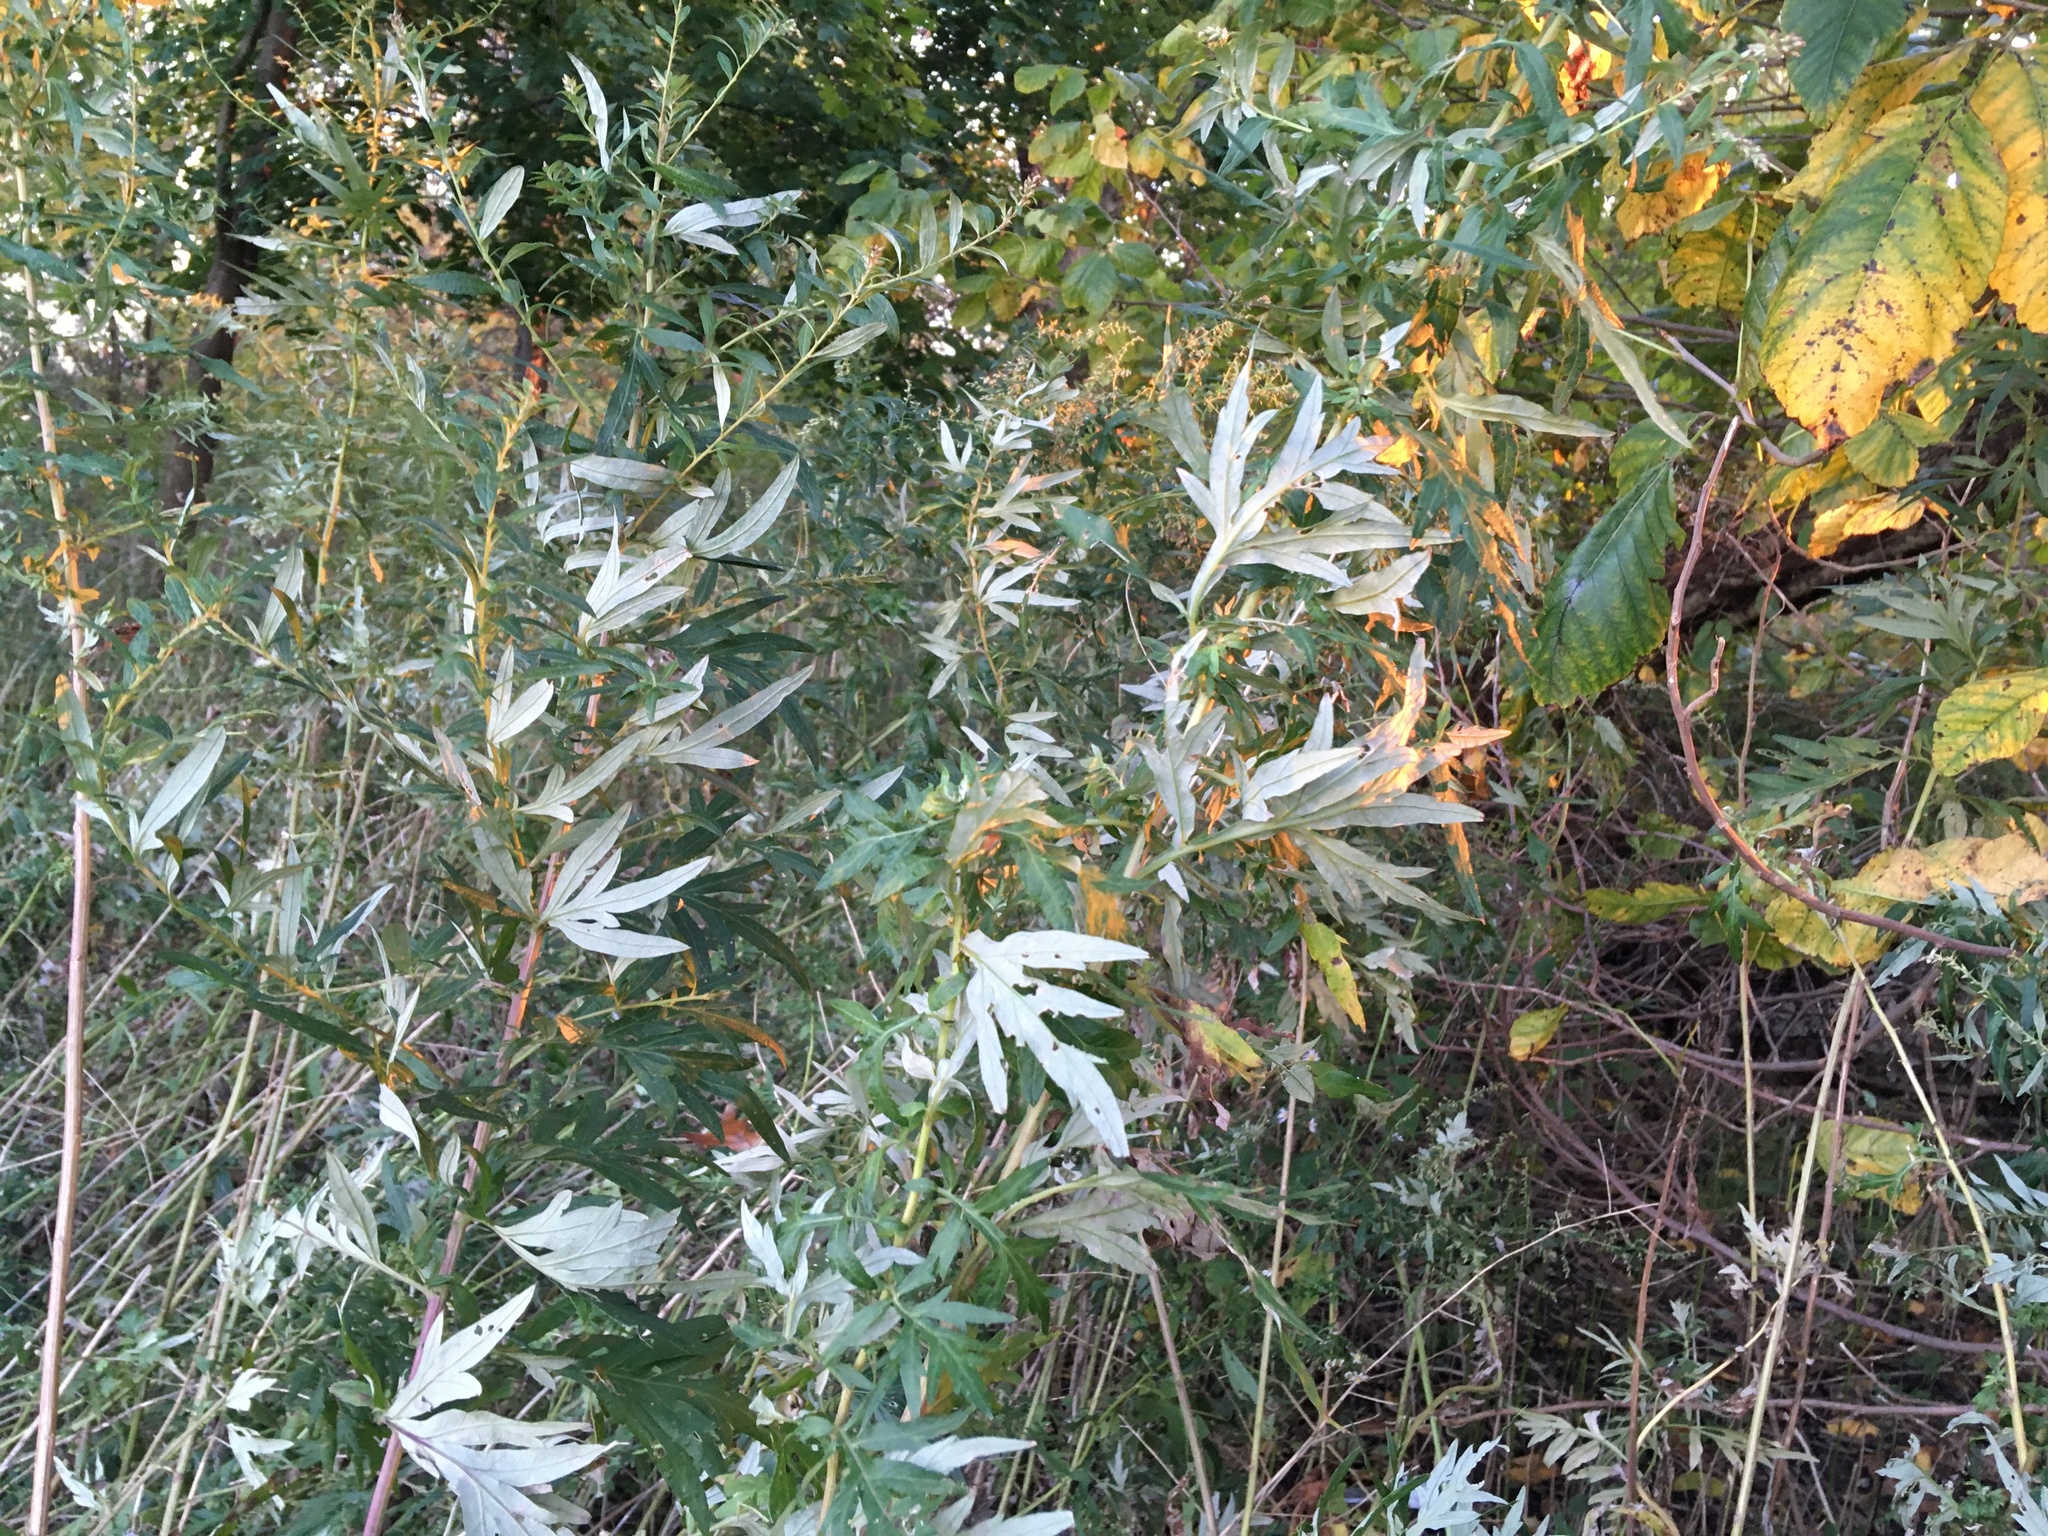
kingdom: Plantae
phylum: Tracheophyta
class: Magnoliopsida
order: Asterales
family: Asteraceae
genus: Artemisia
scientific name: Artemisia vulgaris
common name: Mugwort
